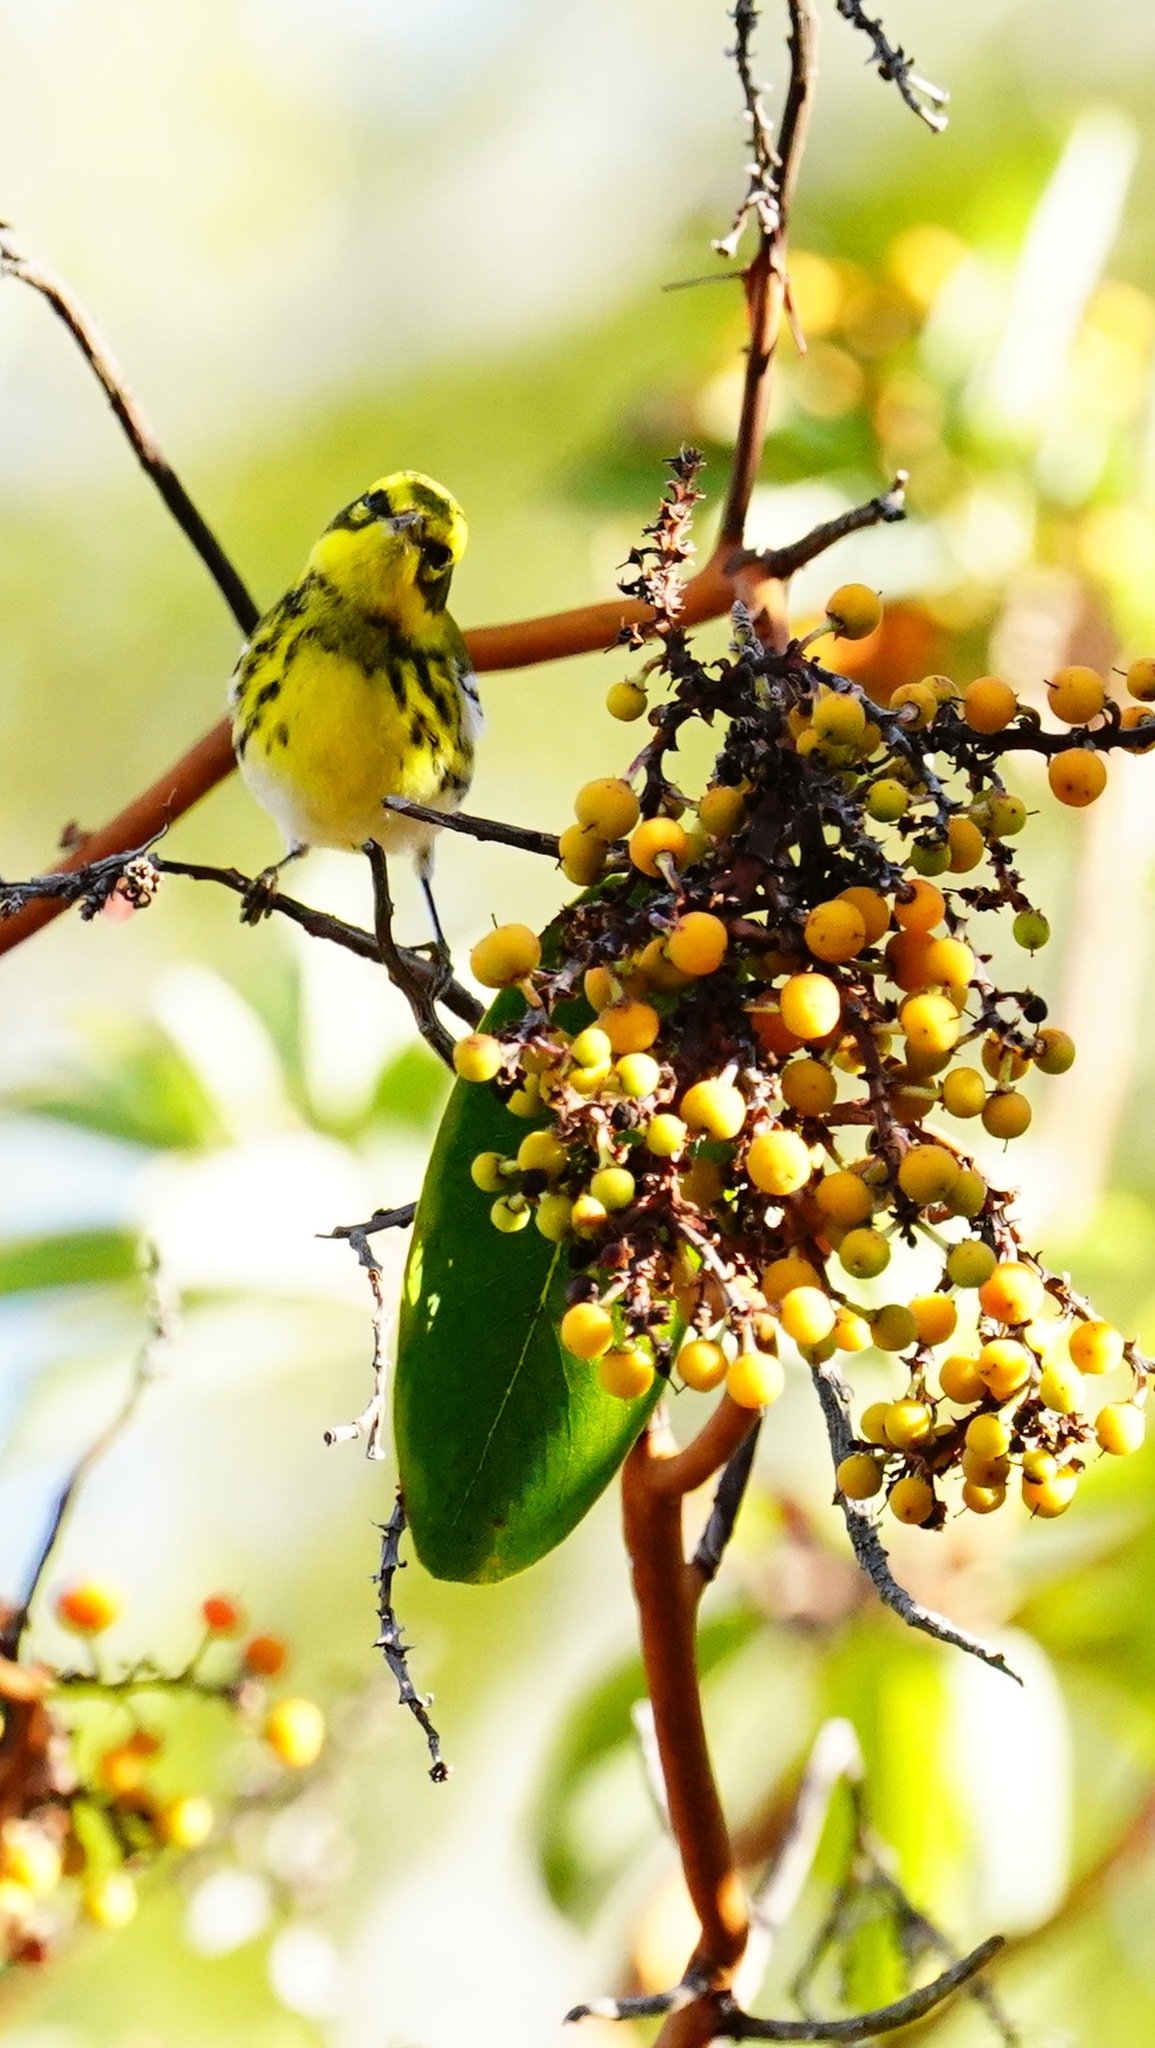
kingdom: Animalia
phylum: Chordata
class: Aves
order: Passeriformes
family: Parulidae
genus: Setophaga
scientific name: Setophaga townsendi
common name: Townsend's warbler
